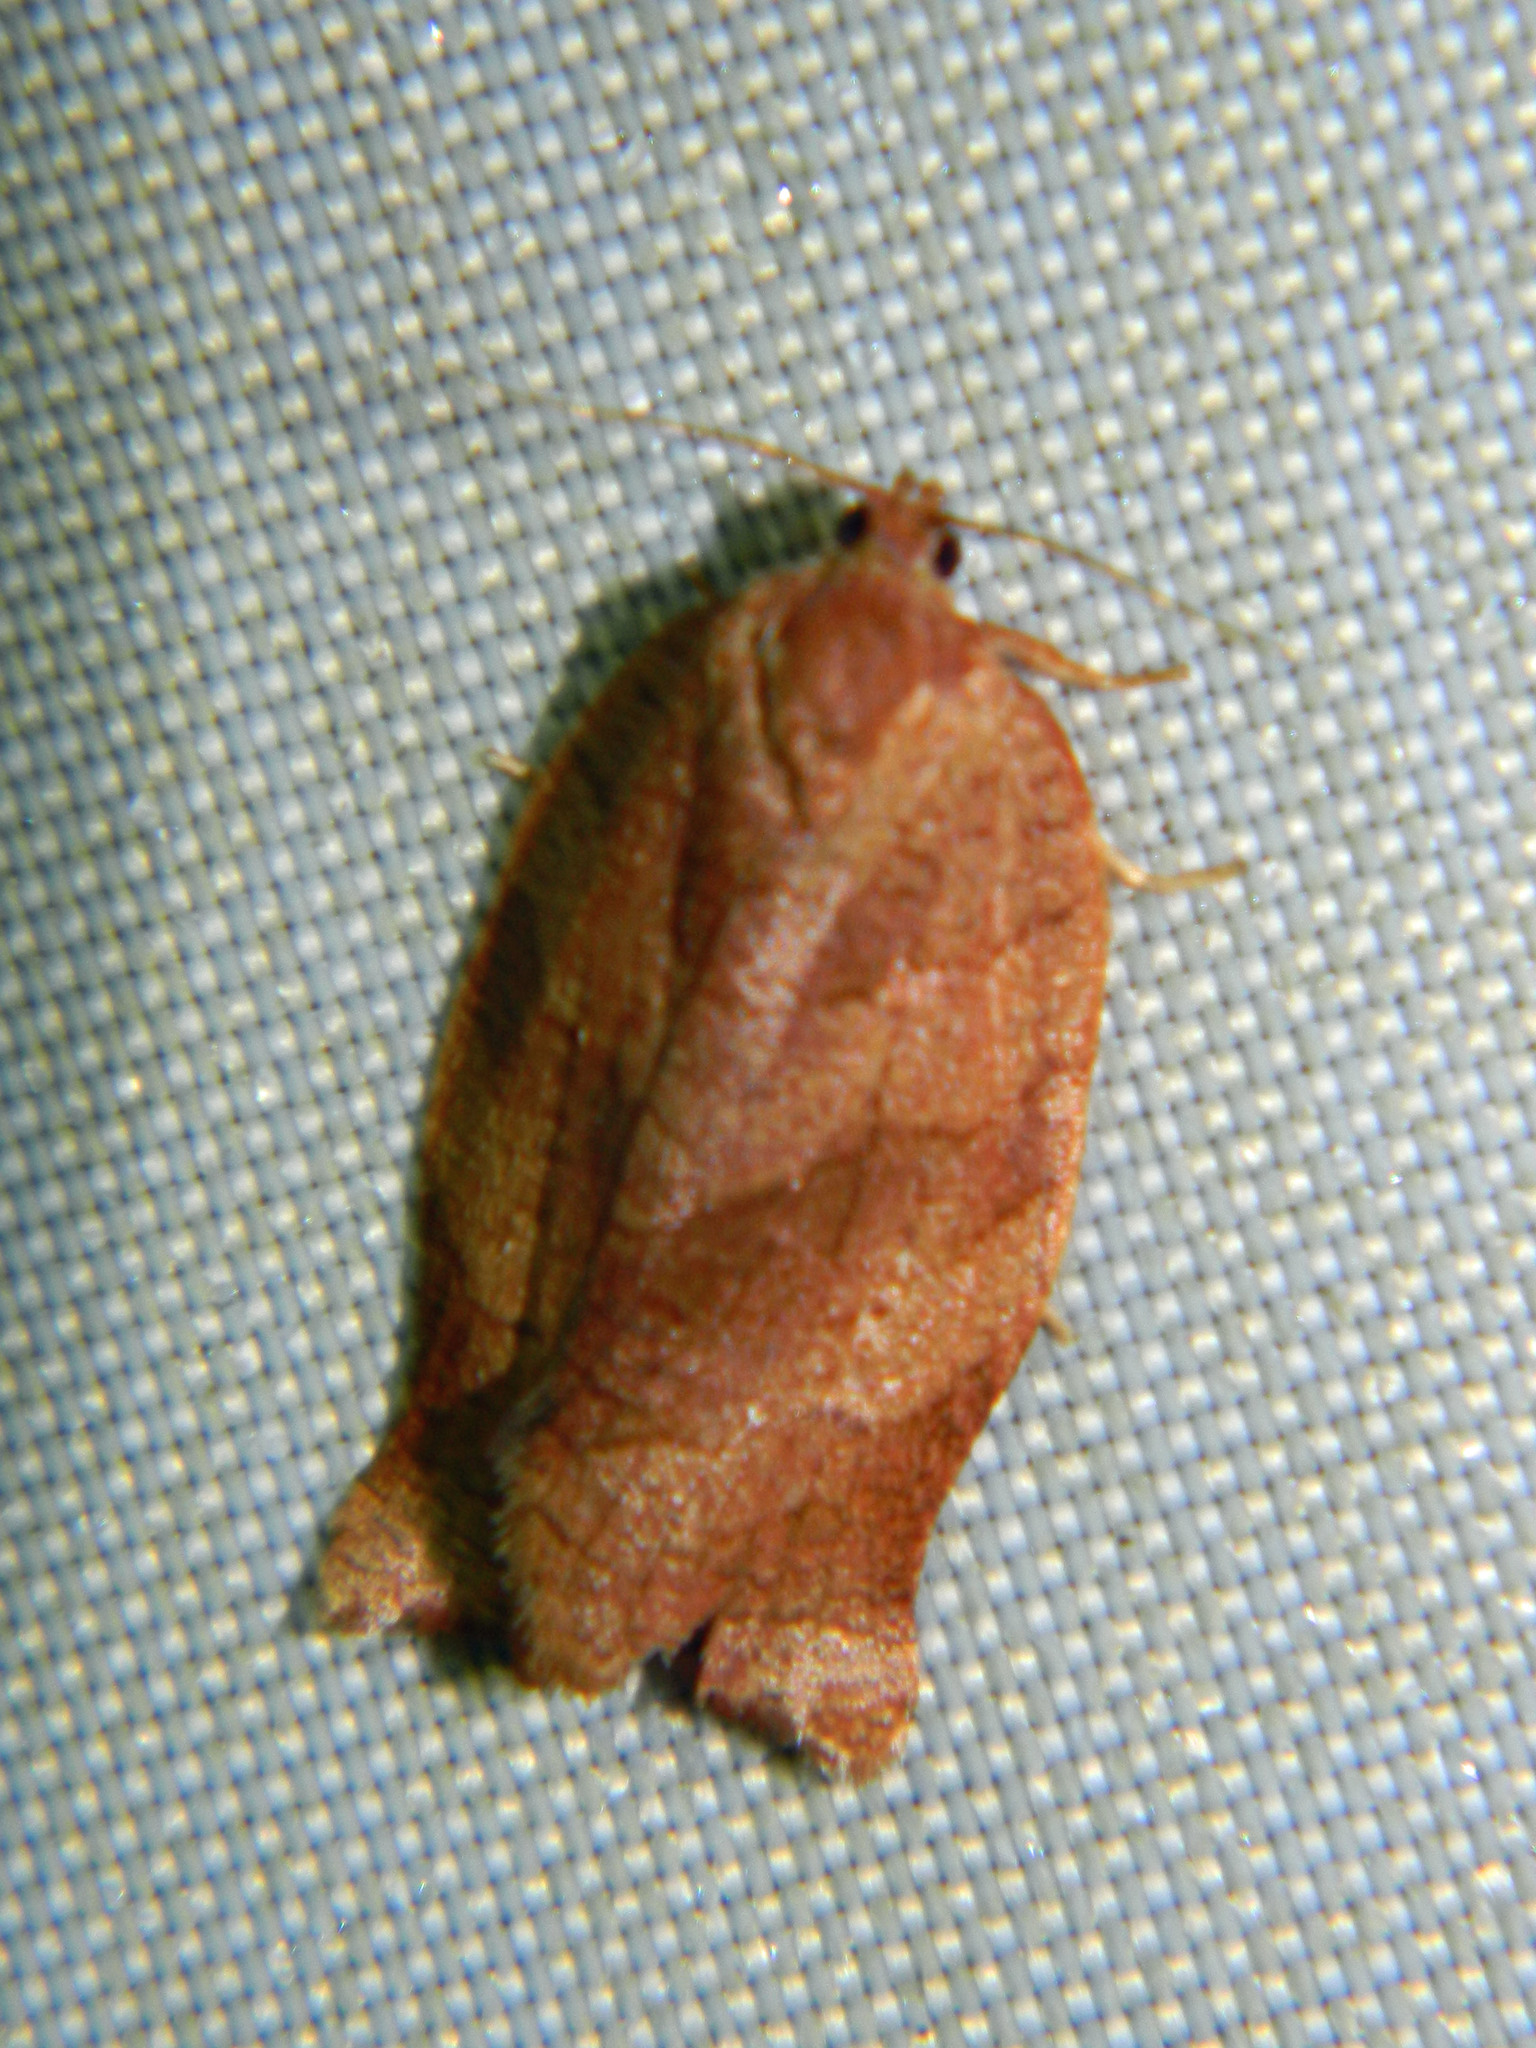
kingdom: Animalia
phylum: Arthropoda
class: Insecta
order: Lepidoptera
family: Tortricidae
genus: Choristoneura
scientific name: Choristoneura rosaceana
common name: Oblique-banded leafroller moth
